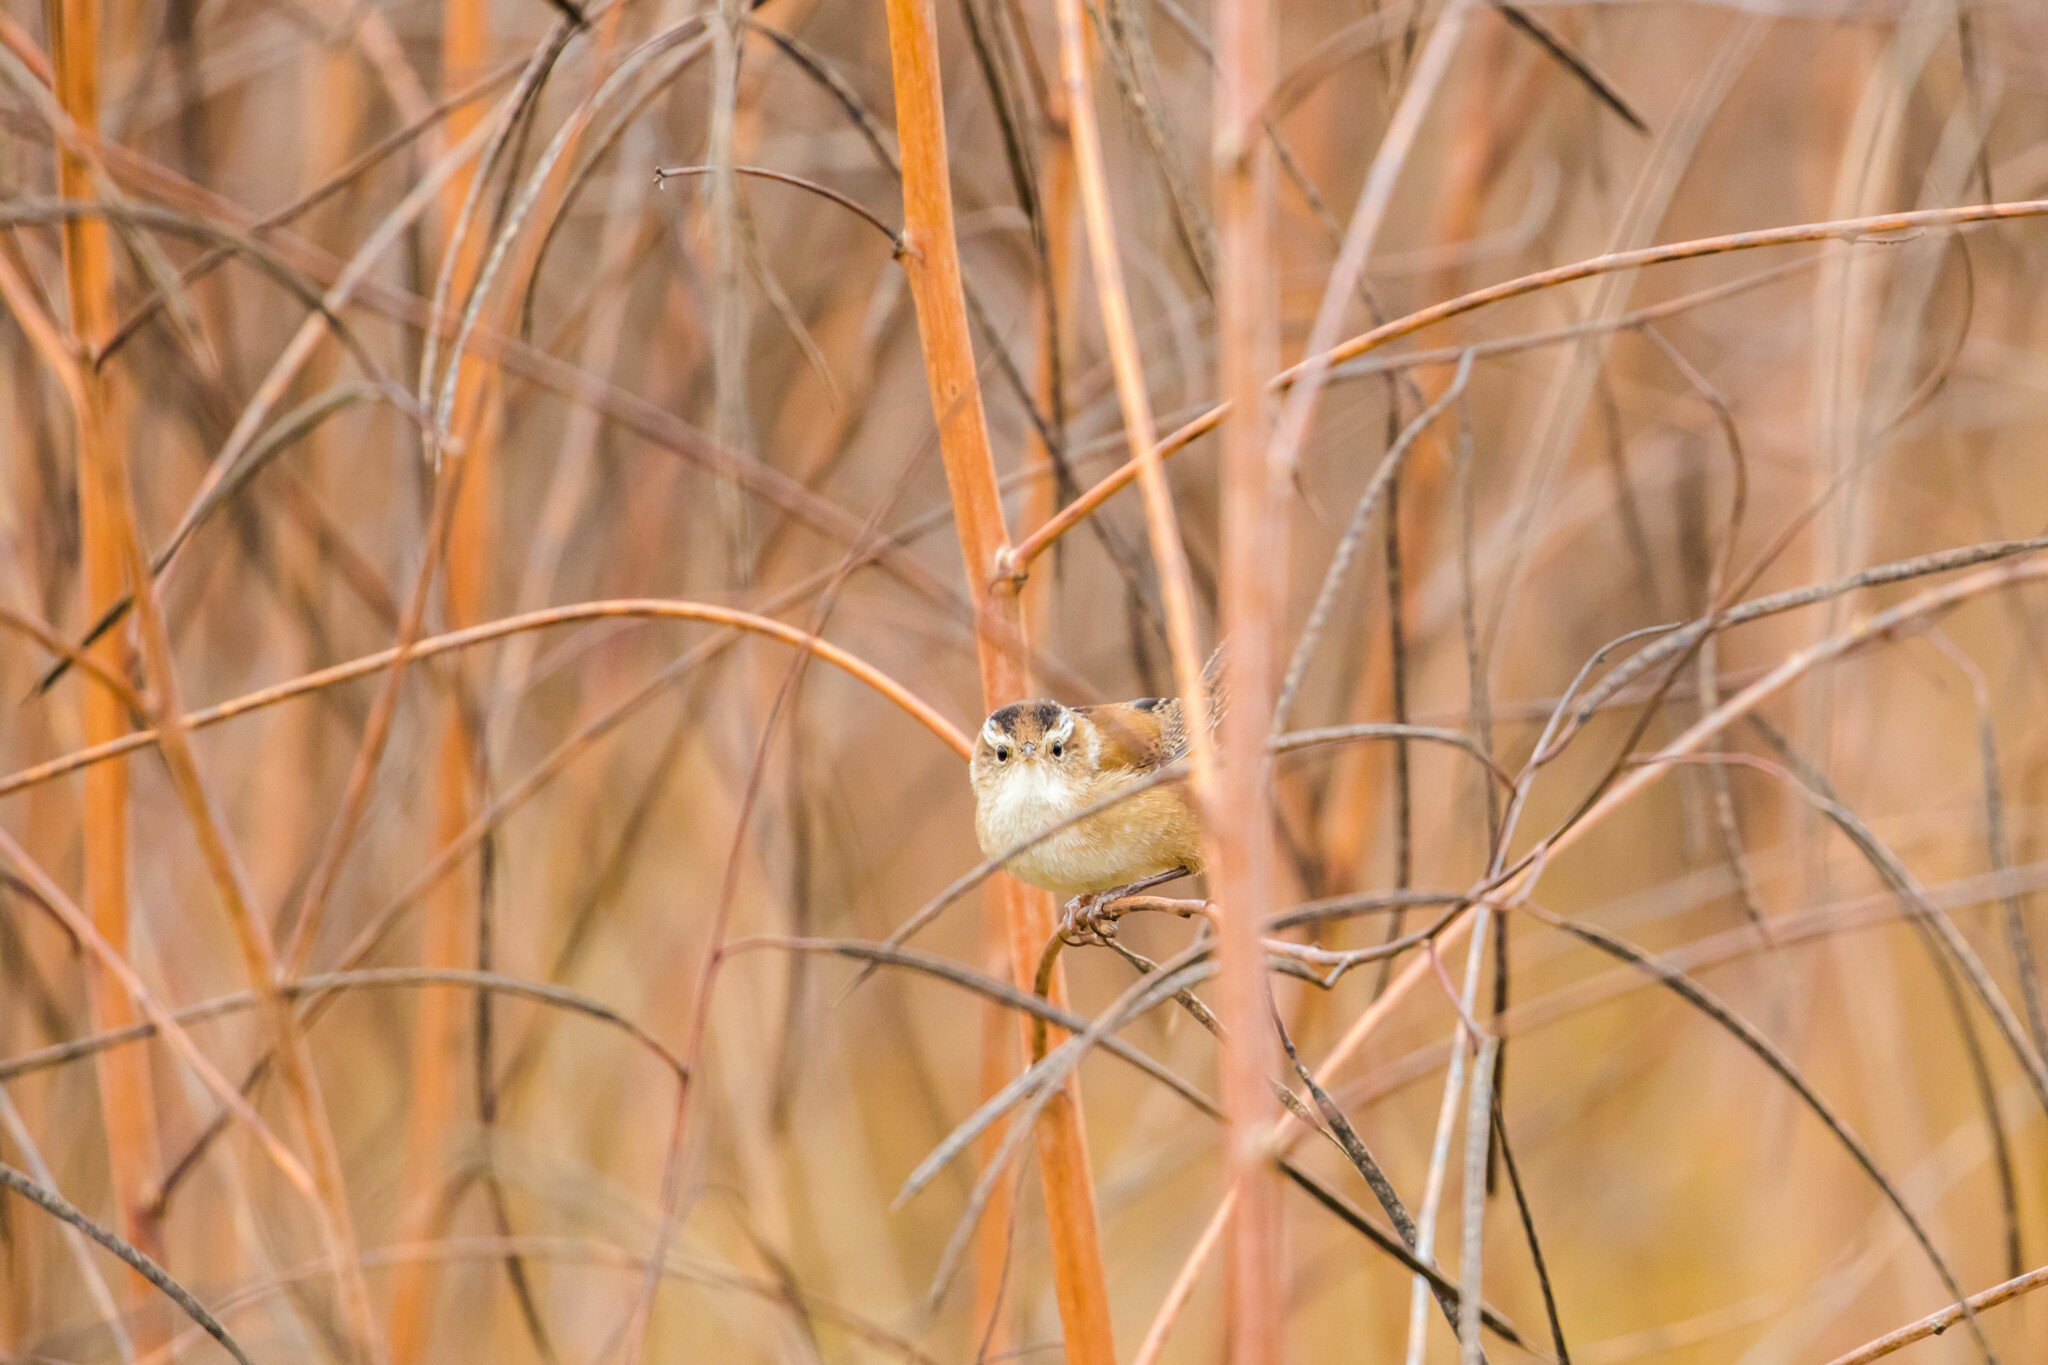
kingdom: Animalia
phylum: Chordata
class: Aves
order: Passeriformes
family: Troglodytidae
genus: Cistothorus
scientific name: Cistothorus palustris
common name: Marsh wren
